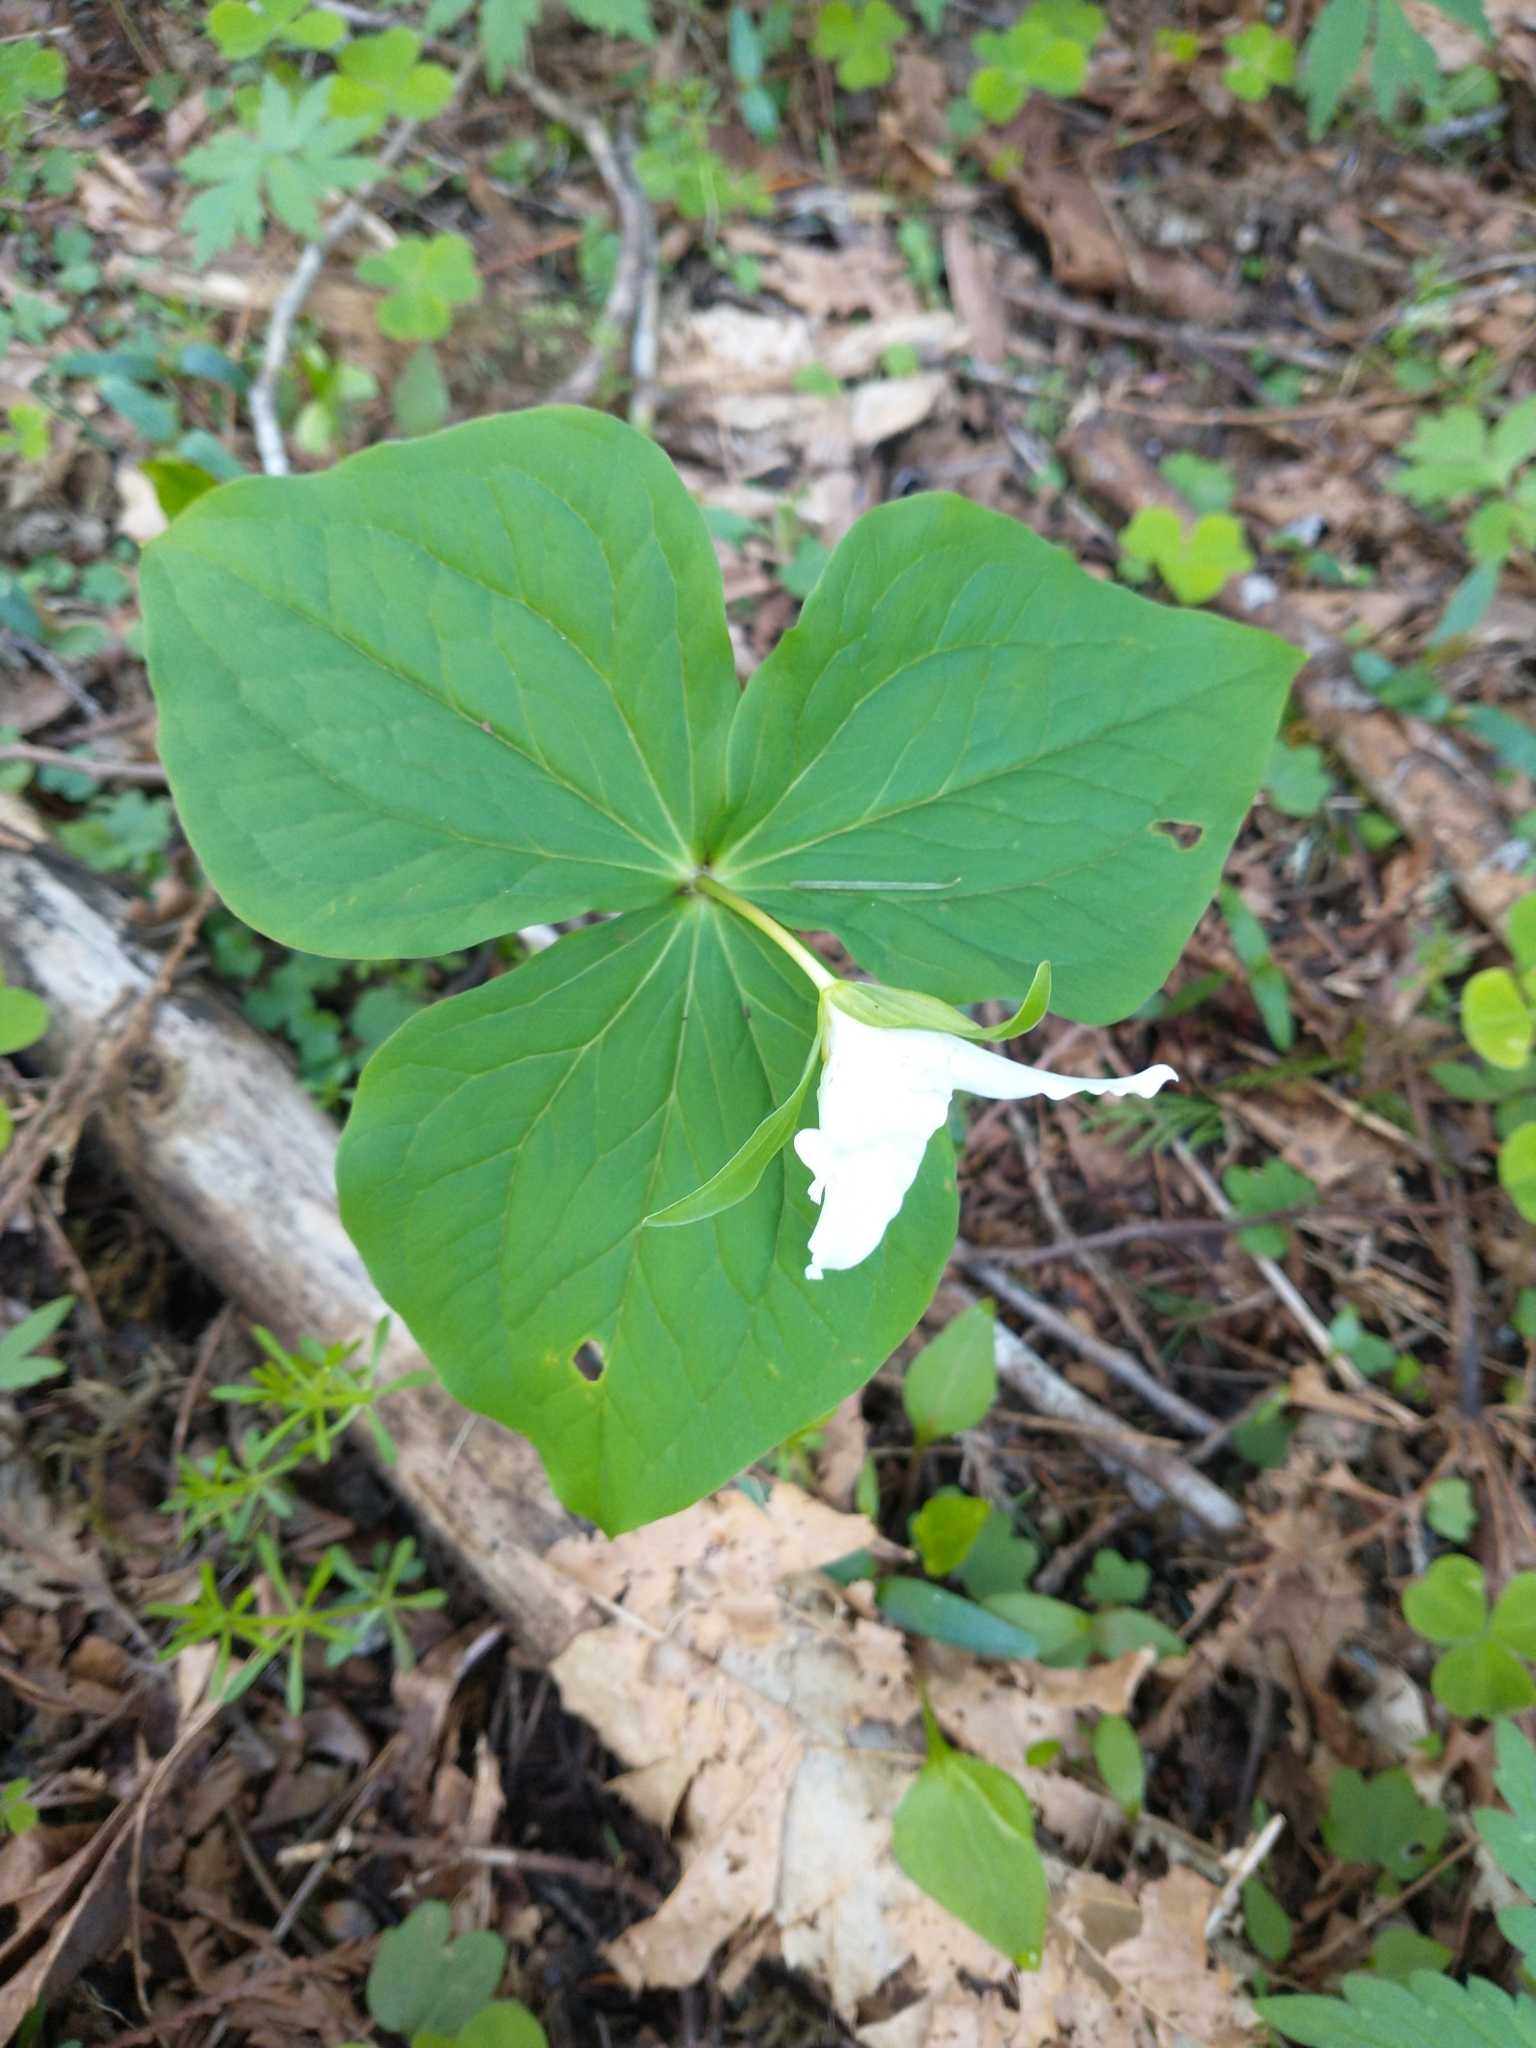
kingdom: Plantae
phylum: Tracheophyta
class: Liliopsida
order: Liliales
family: Melanthiaceae
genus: Trillium
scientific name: Trillium ovatum
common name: Pacific trillium
